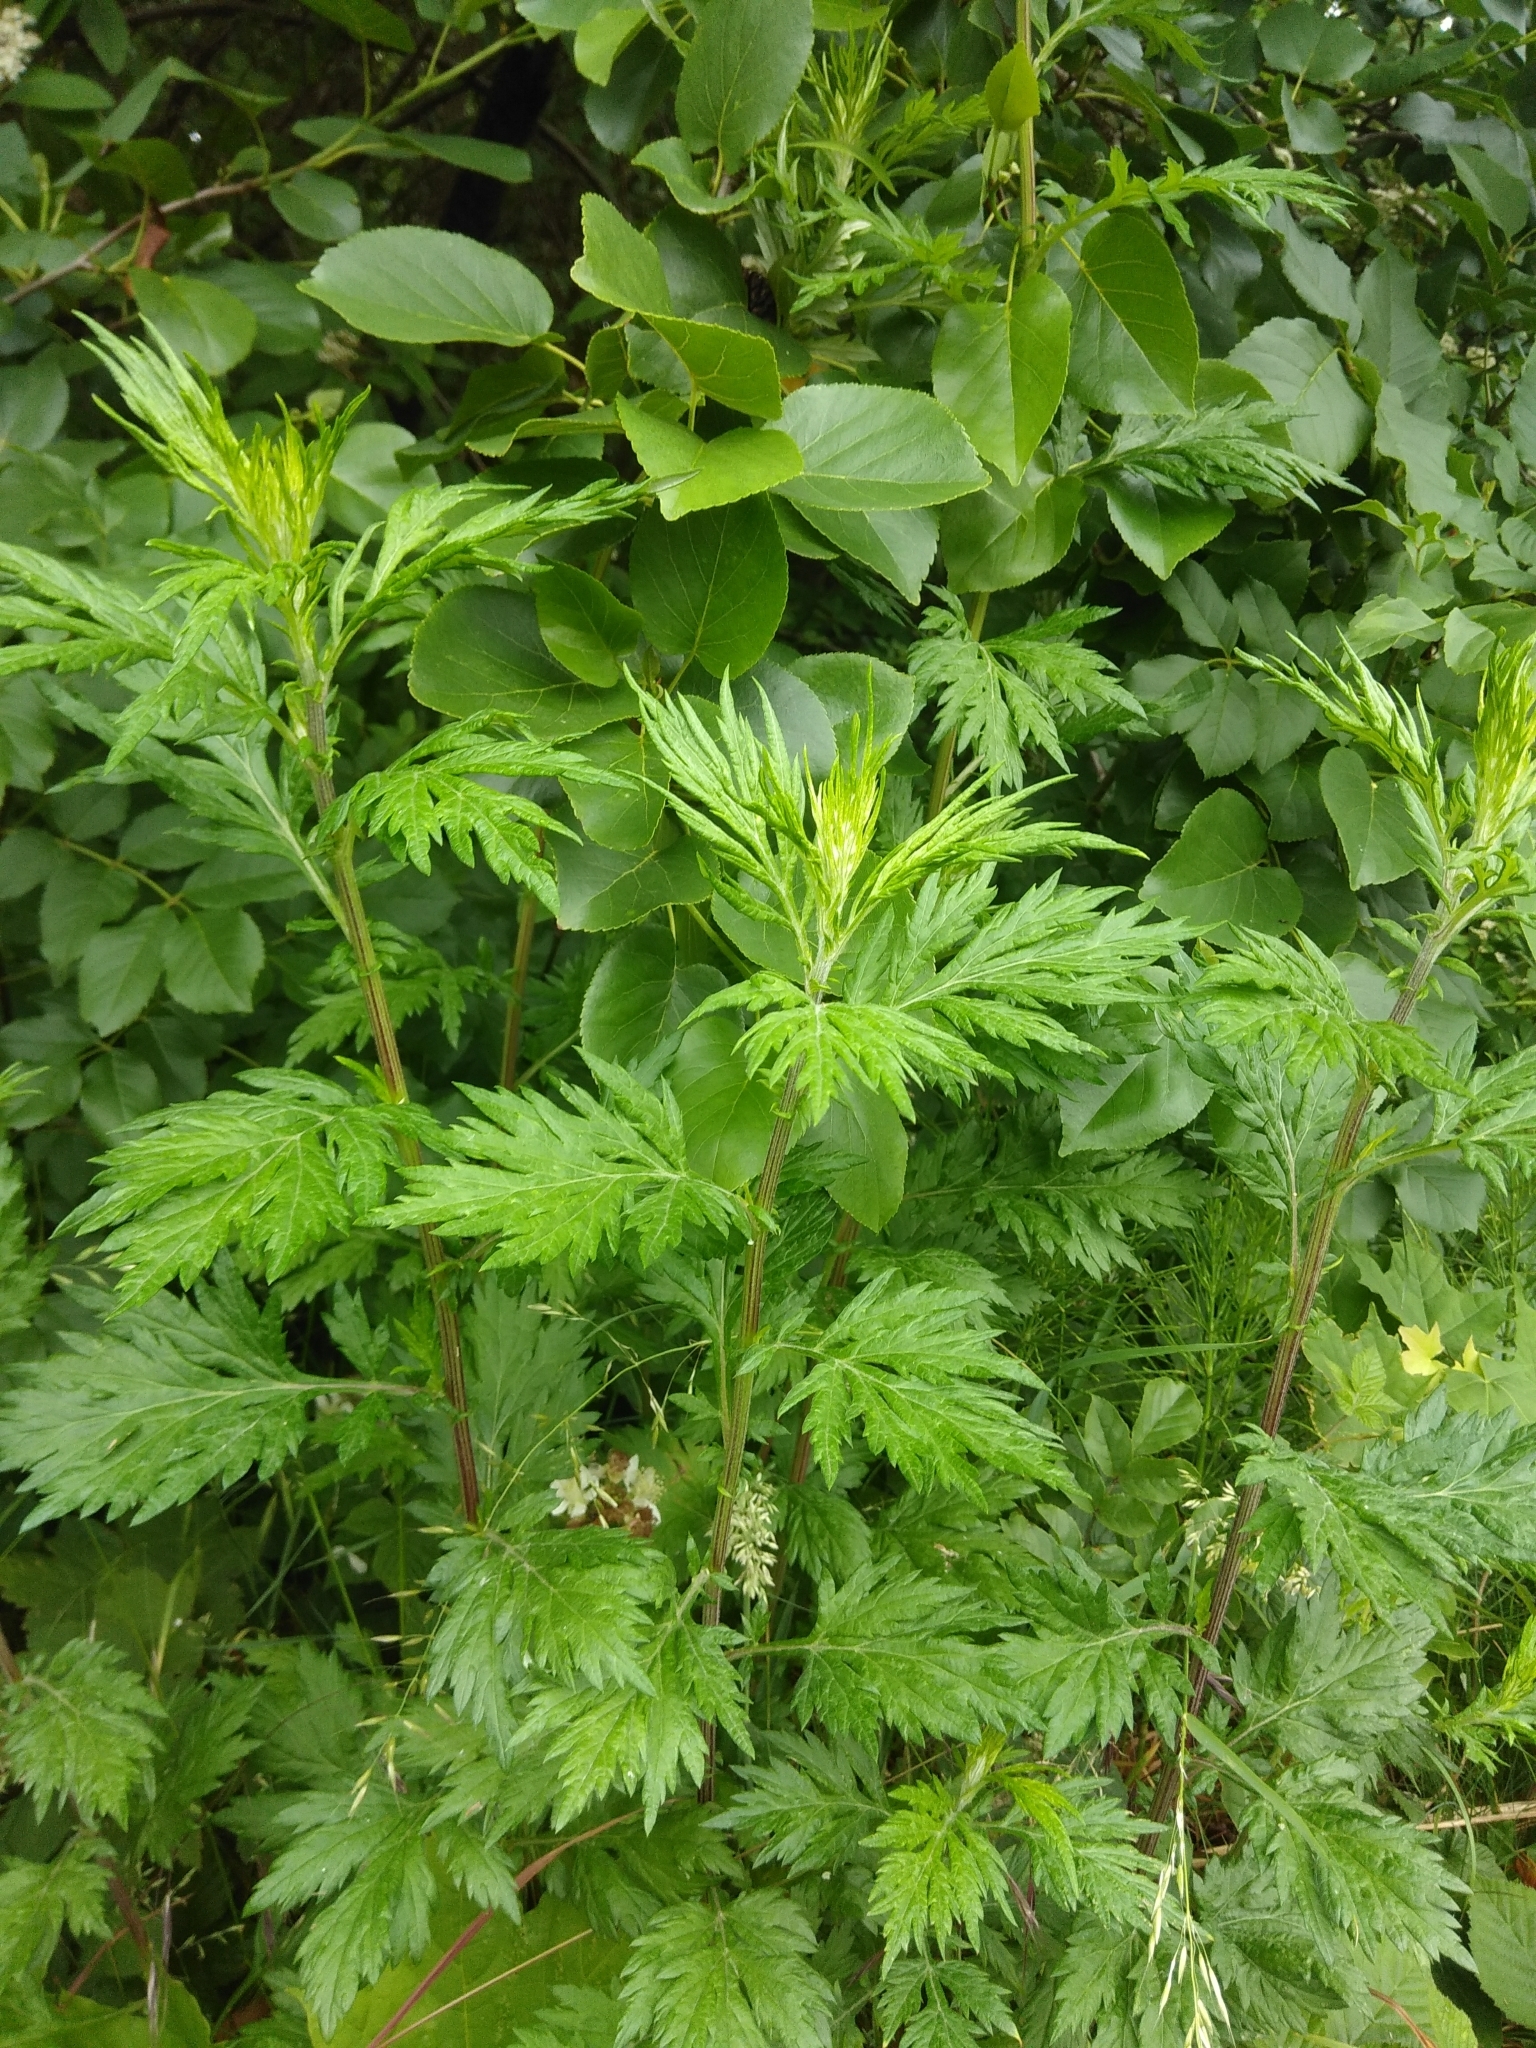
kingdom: Plantae
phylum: Tracheophyta
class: Magnoliopsida
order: Asterales
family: Asteraceae
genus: Artemisia
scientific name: Artemisia vulgaris
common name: Mugwort
